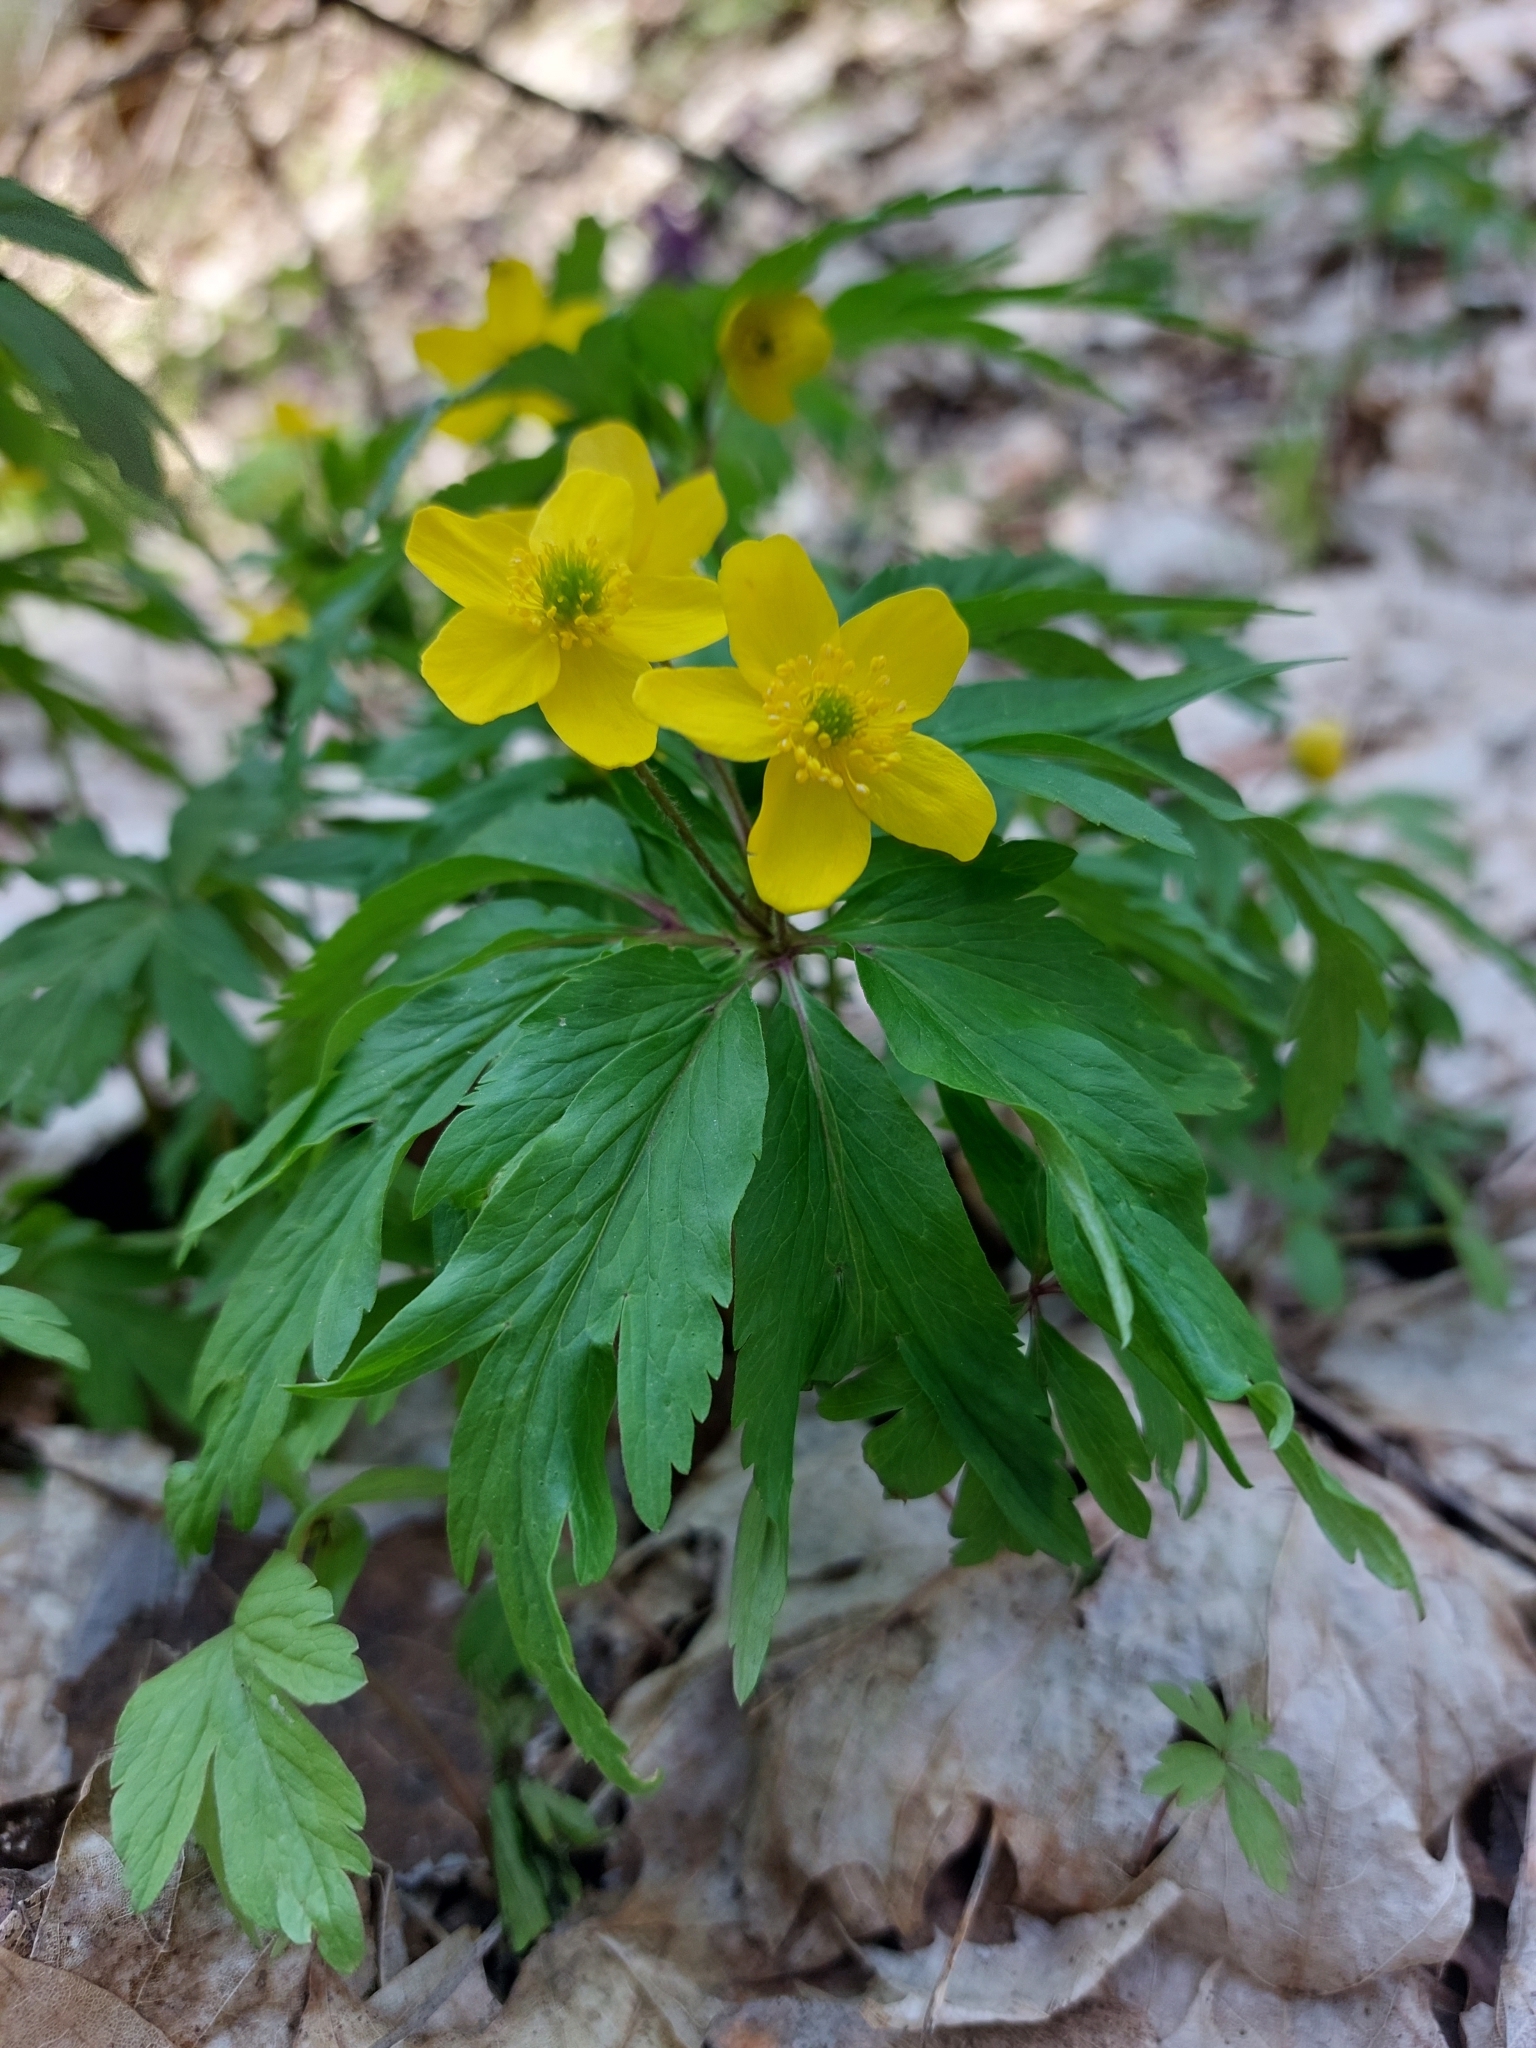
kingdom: Plantae
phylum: Tracheophyta
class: Magnoliopsida
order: Ranunculales
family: Ranunculaceae
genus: Anemone
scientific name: Anemone ranunculoides
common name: Yellow anemone
